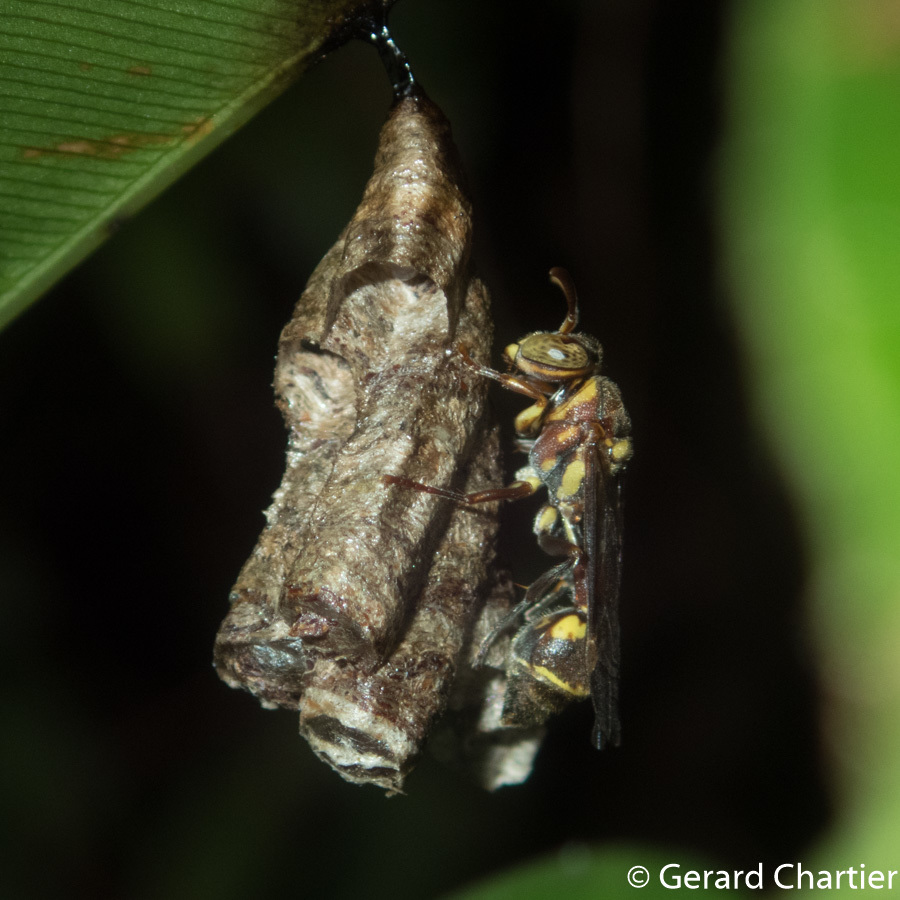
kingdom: Animalia
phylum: Arthropoda
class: Insecta
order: Hymenoptera
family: Vespidae
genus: Ropalidia
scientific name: Ropalidia stigma
